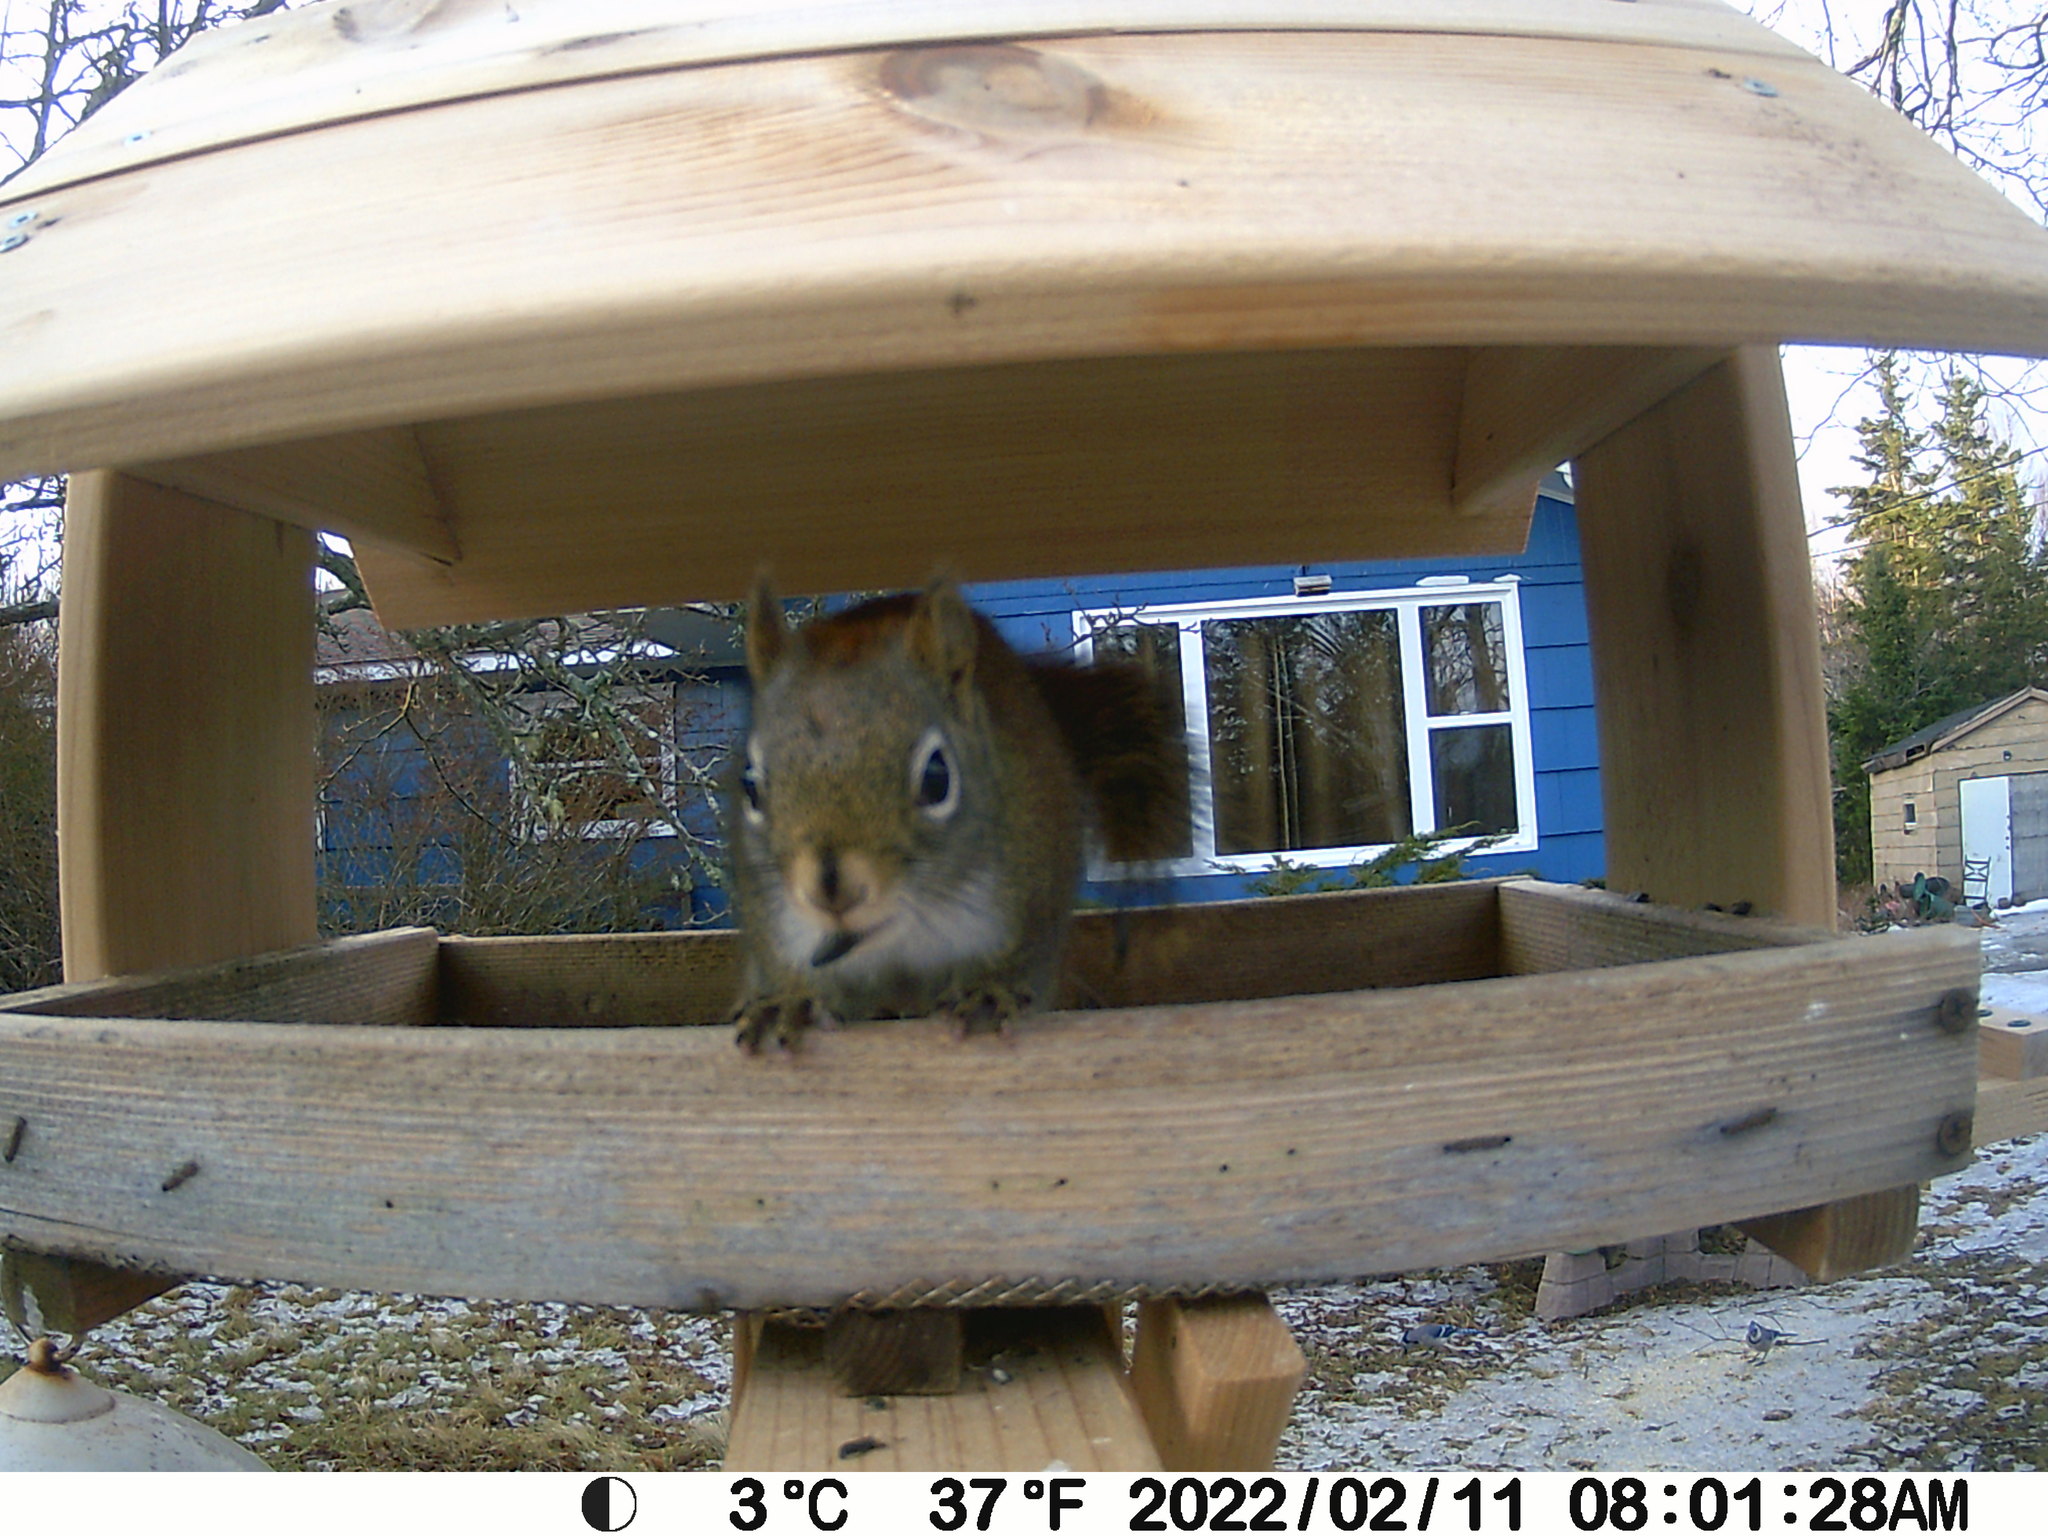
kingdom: Animalia
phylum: Chordata
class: Mammalia
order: Rodentia
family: Sciuridae
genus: Tamiasciurus
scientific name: Tamiasciurus hudsonicus
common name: Red squirrel
